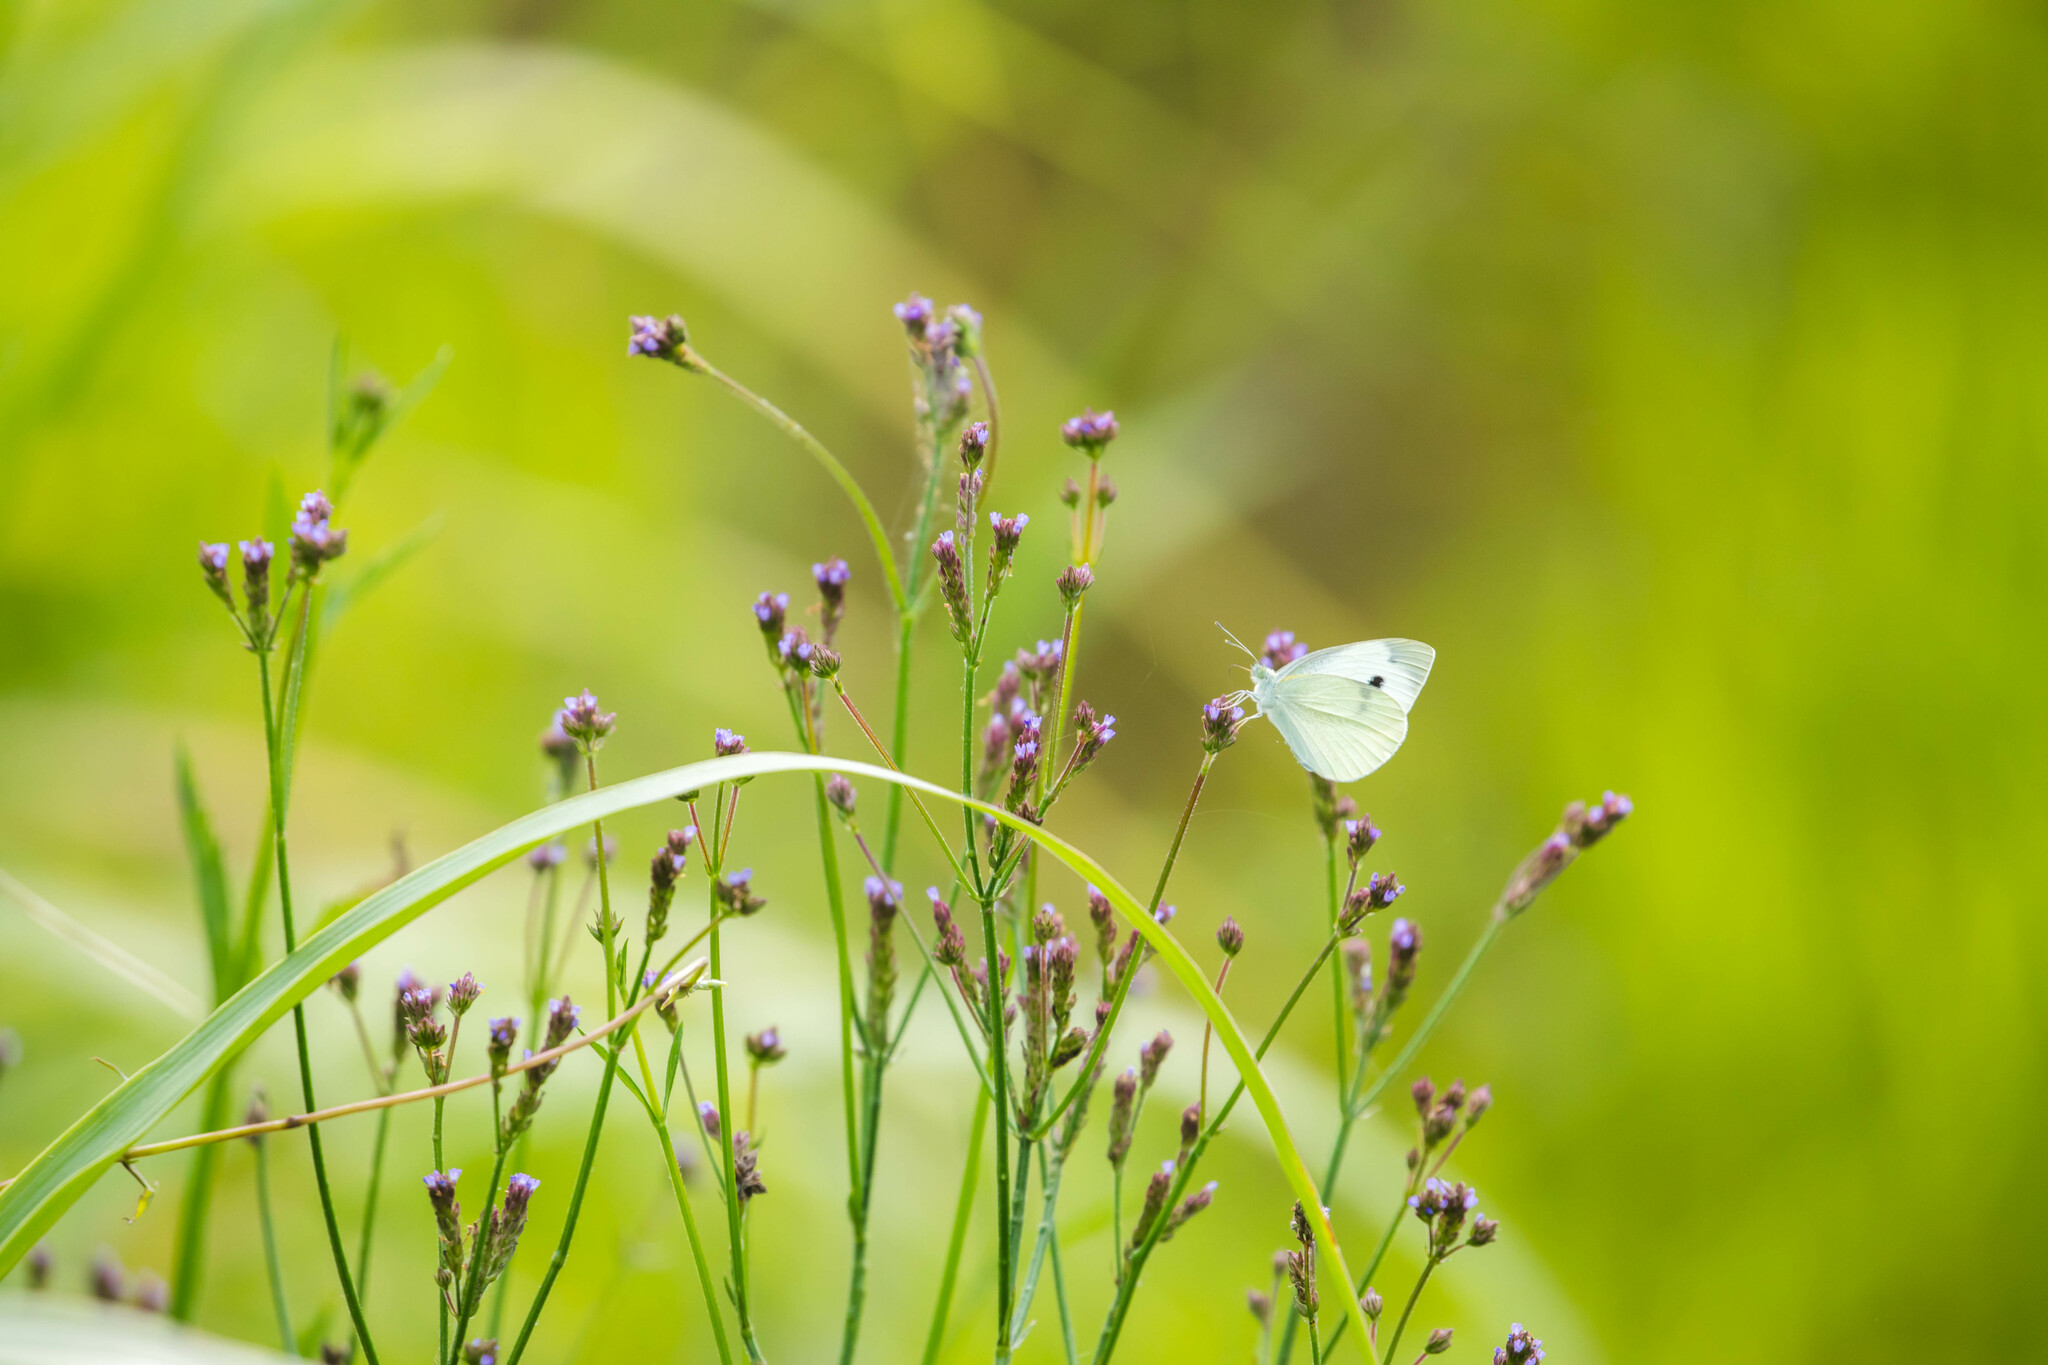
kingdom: Animalia
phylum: Arthropoda
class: Insecta
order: Lepidoptera
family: Pieridae
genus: Pieris
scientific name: Pieris rapae
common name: Small white
